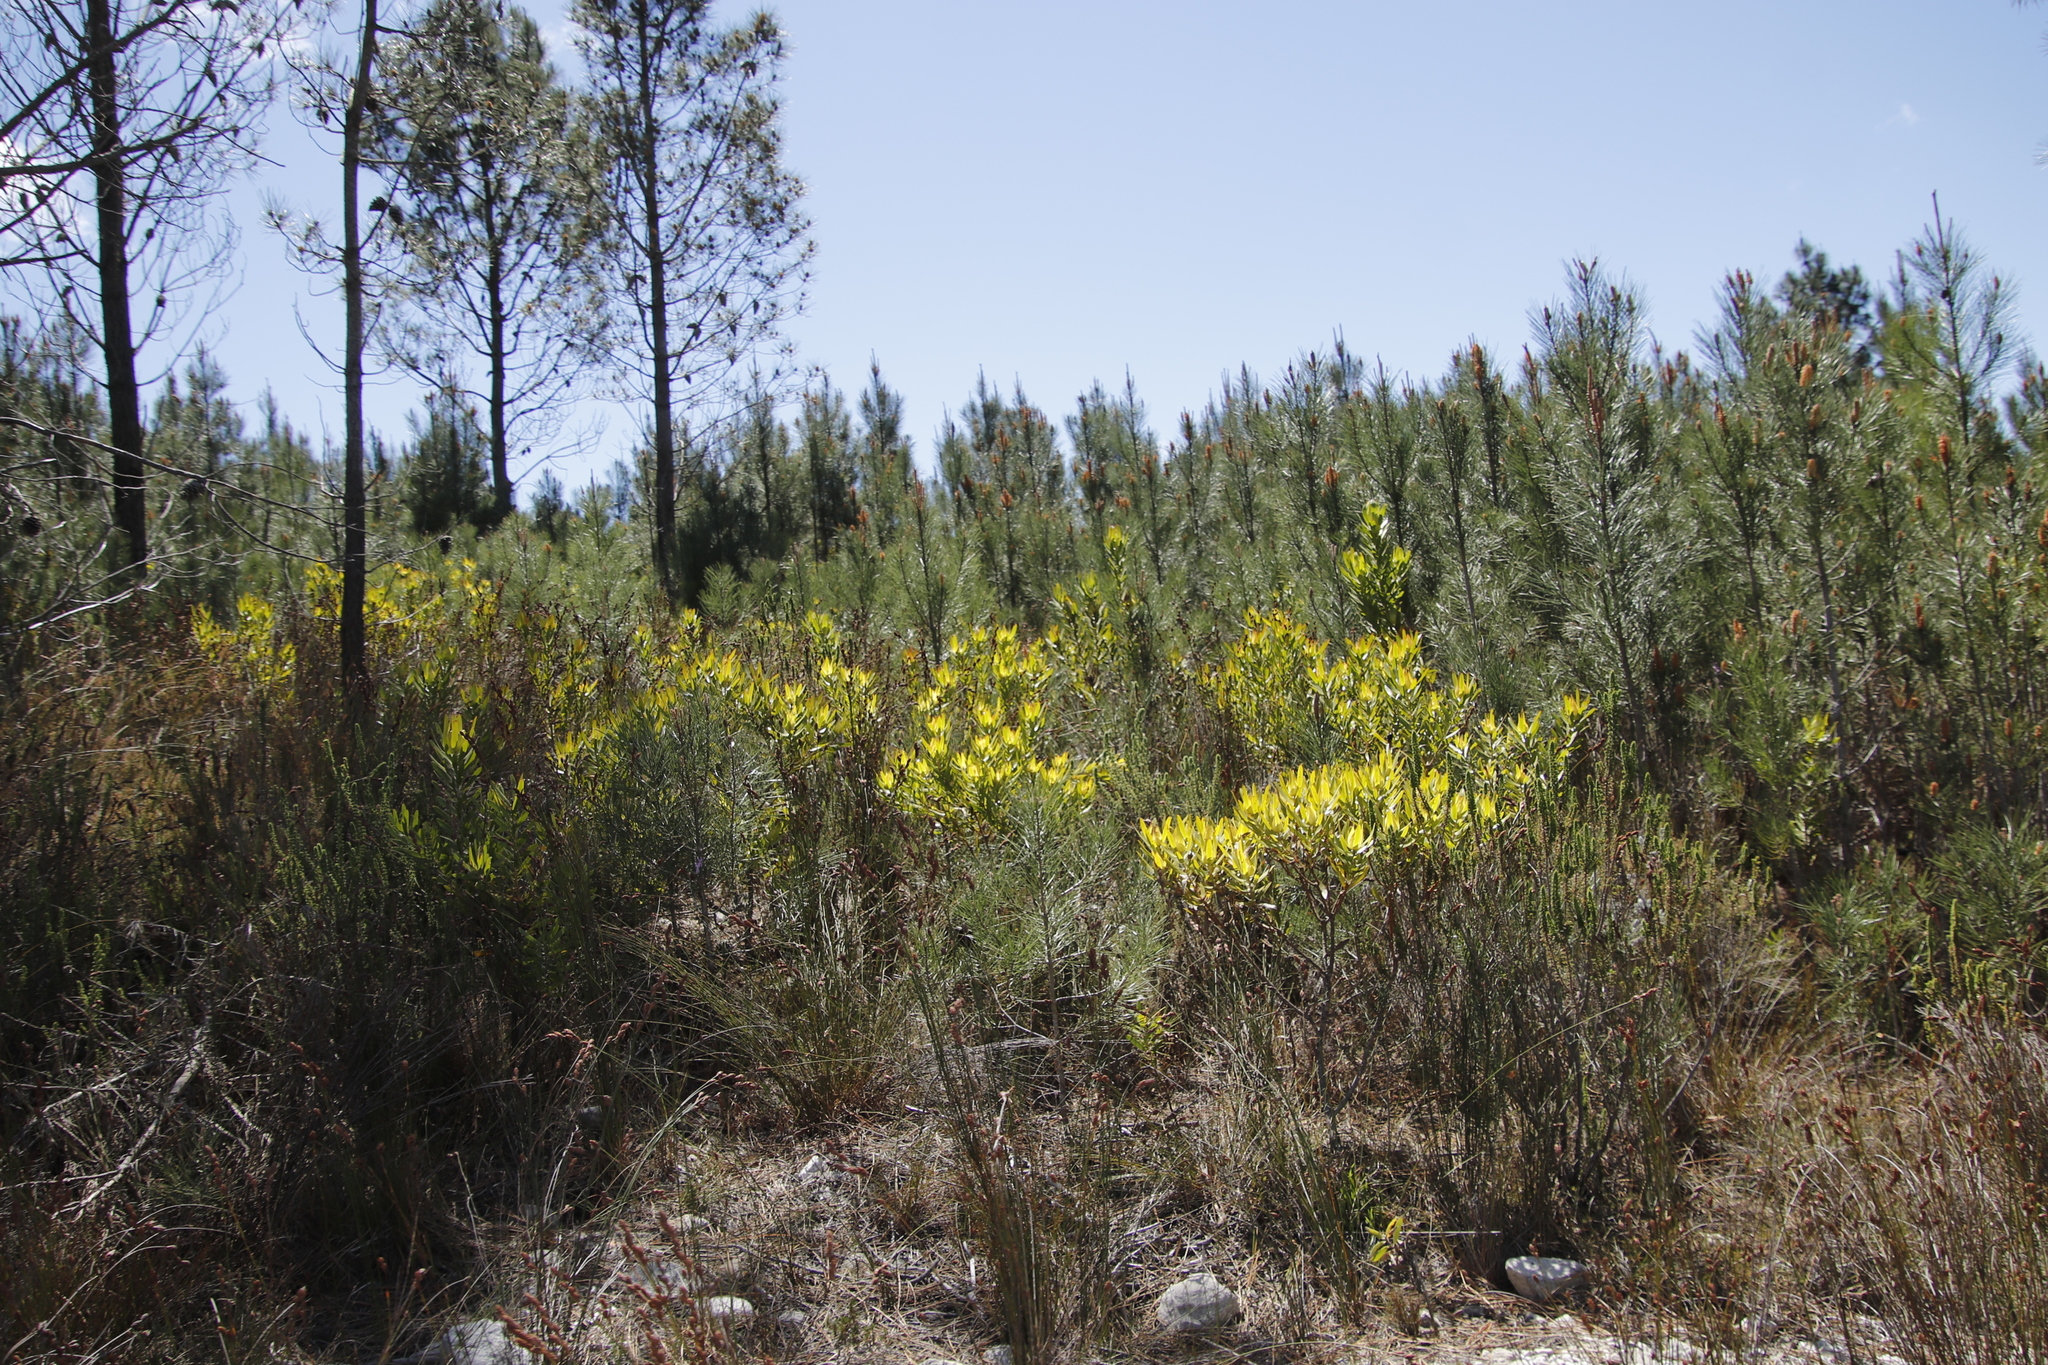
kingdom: Plantae
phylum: Tracheophyta
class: Magnoliopsida
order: Proteales
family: Proteaceae
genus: Leucadendron
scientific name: Leucadendron laureolum
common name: Golden sunshinebush
